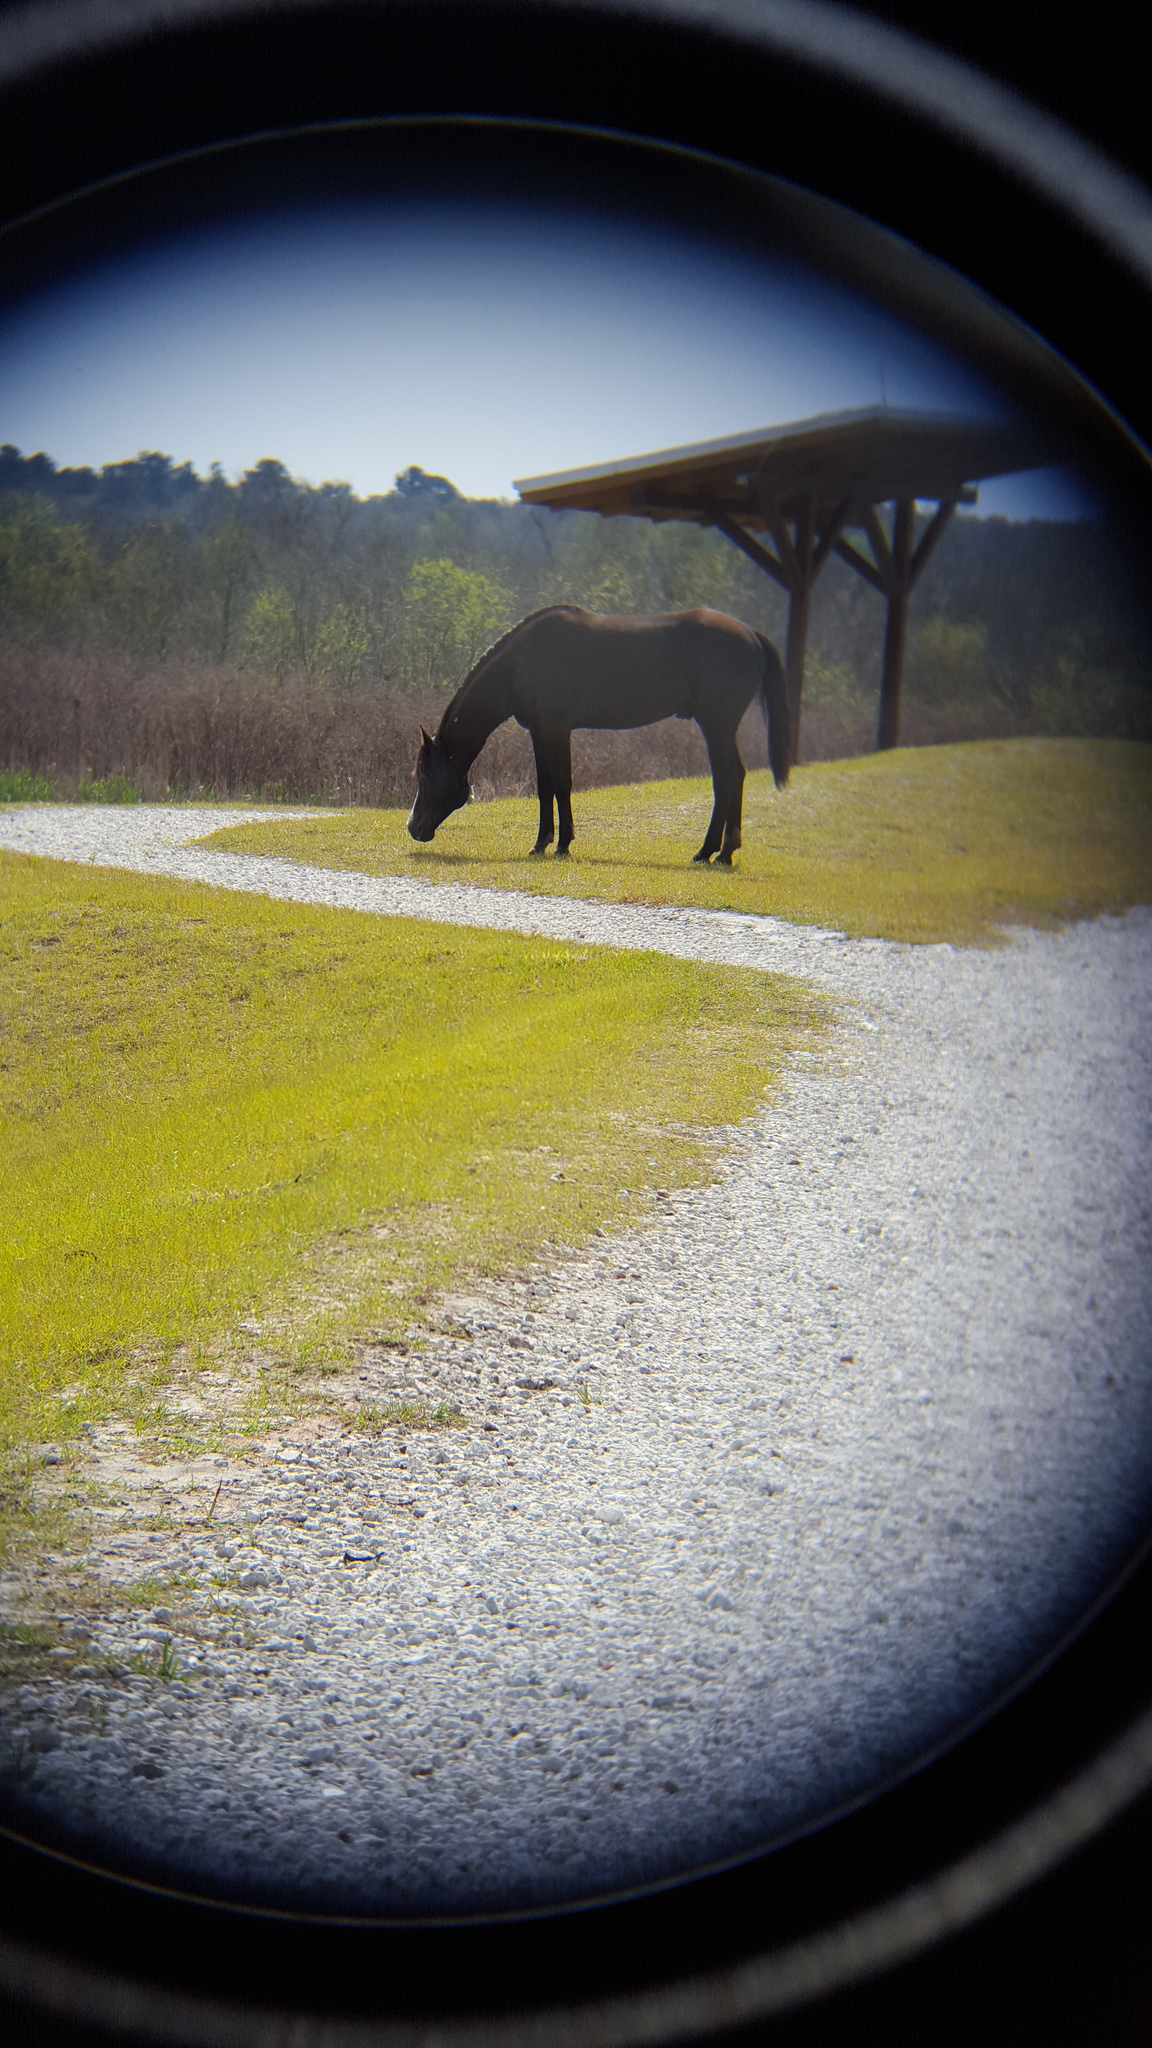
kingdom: Animalia
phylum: Chordata
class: Mammalia
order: Perissodactyla
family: Equidae
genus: Equus
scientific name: Equus caballus
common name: Horse
